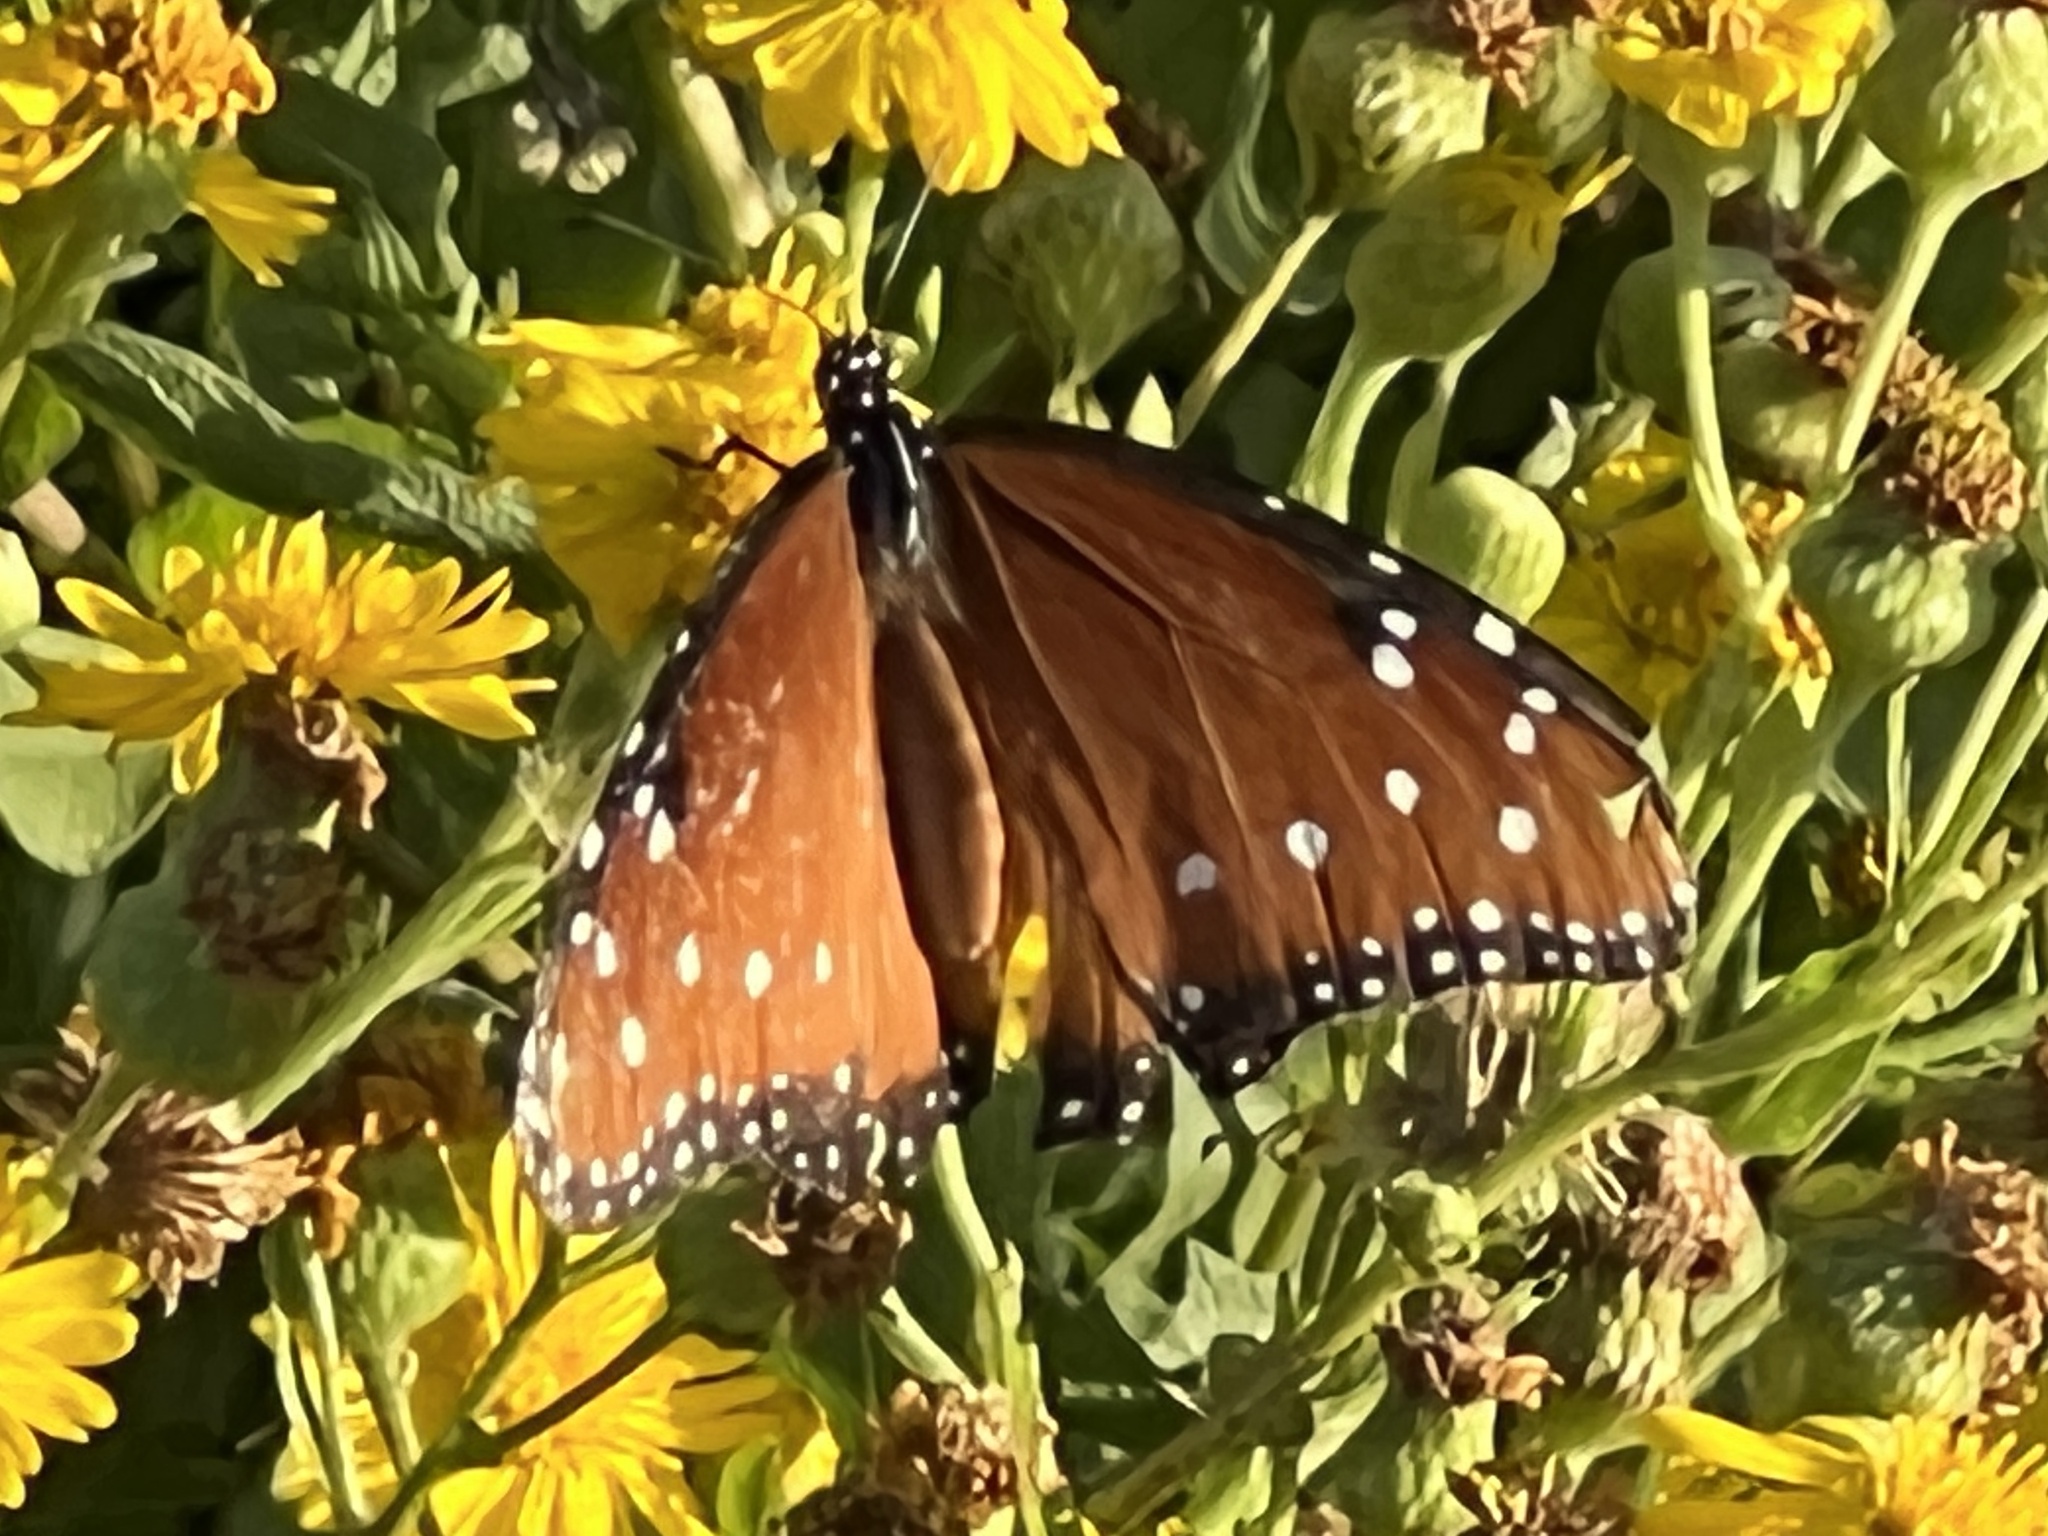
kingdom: Animalia
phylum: Arthropoda
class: Insecta
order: Lepidoptera
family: Nymphalidae
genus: Danaus
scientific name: Danaus gilippus
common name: Queen
